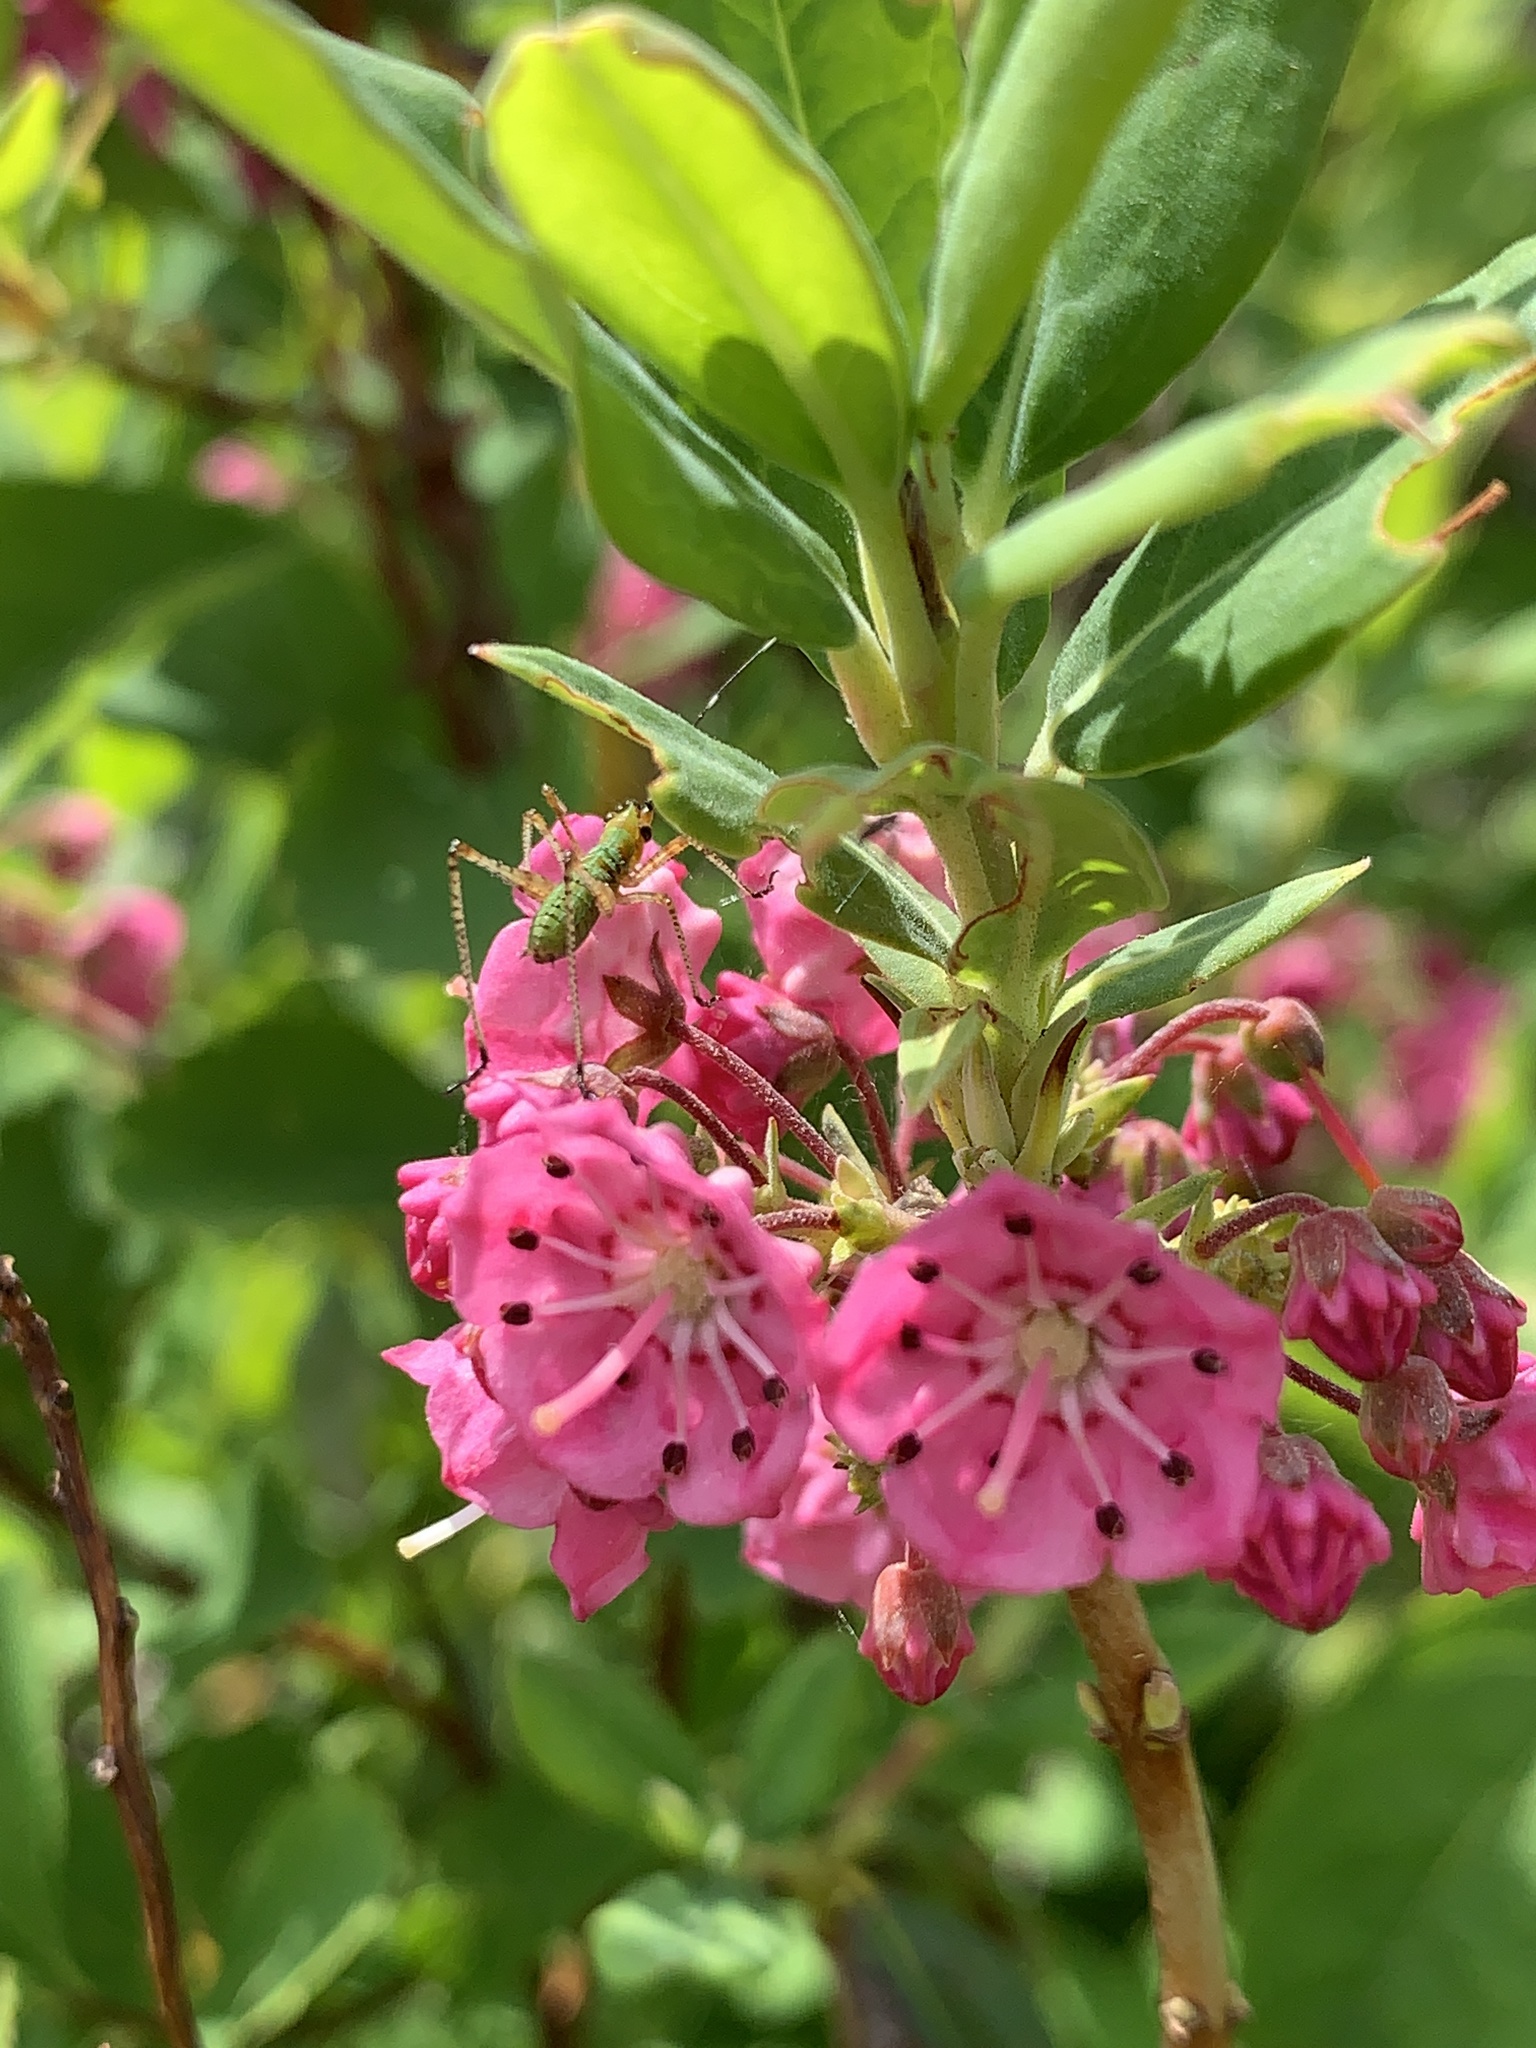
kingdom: Plantae
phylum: Tracheophyta
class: Magnoliopsida
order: Ericales
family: Ericaceae
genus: Kalmia
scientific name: Kalmia angustifolia
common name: Sheep-laurel
